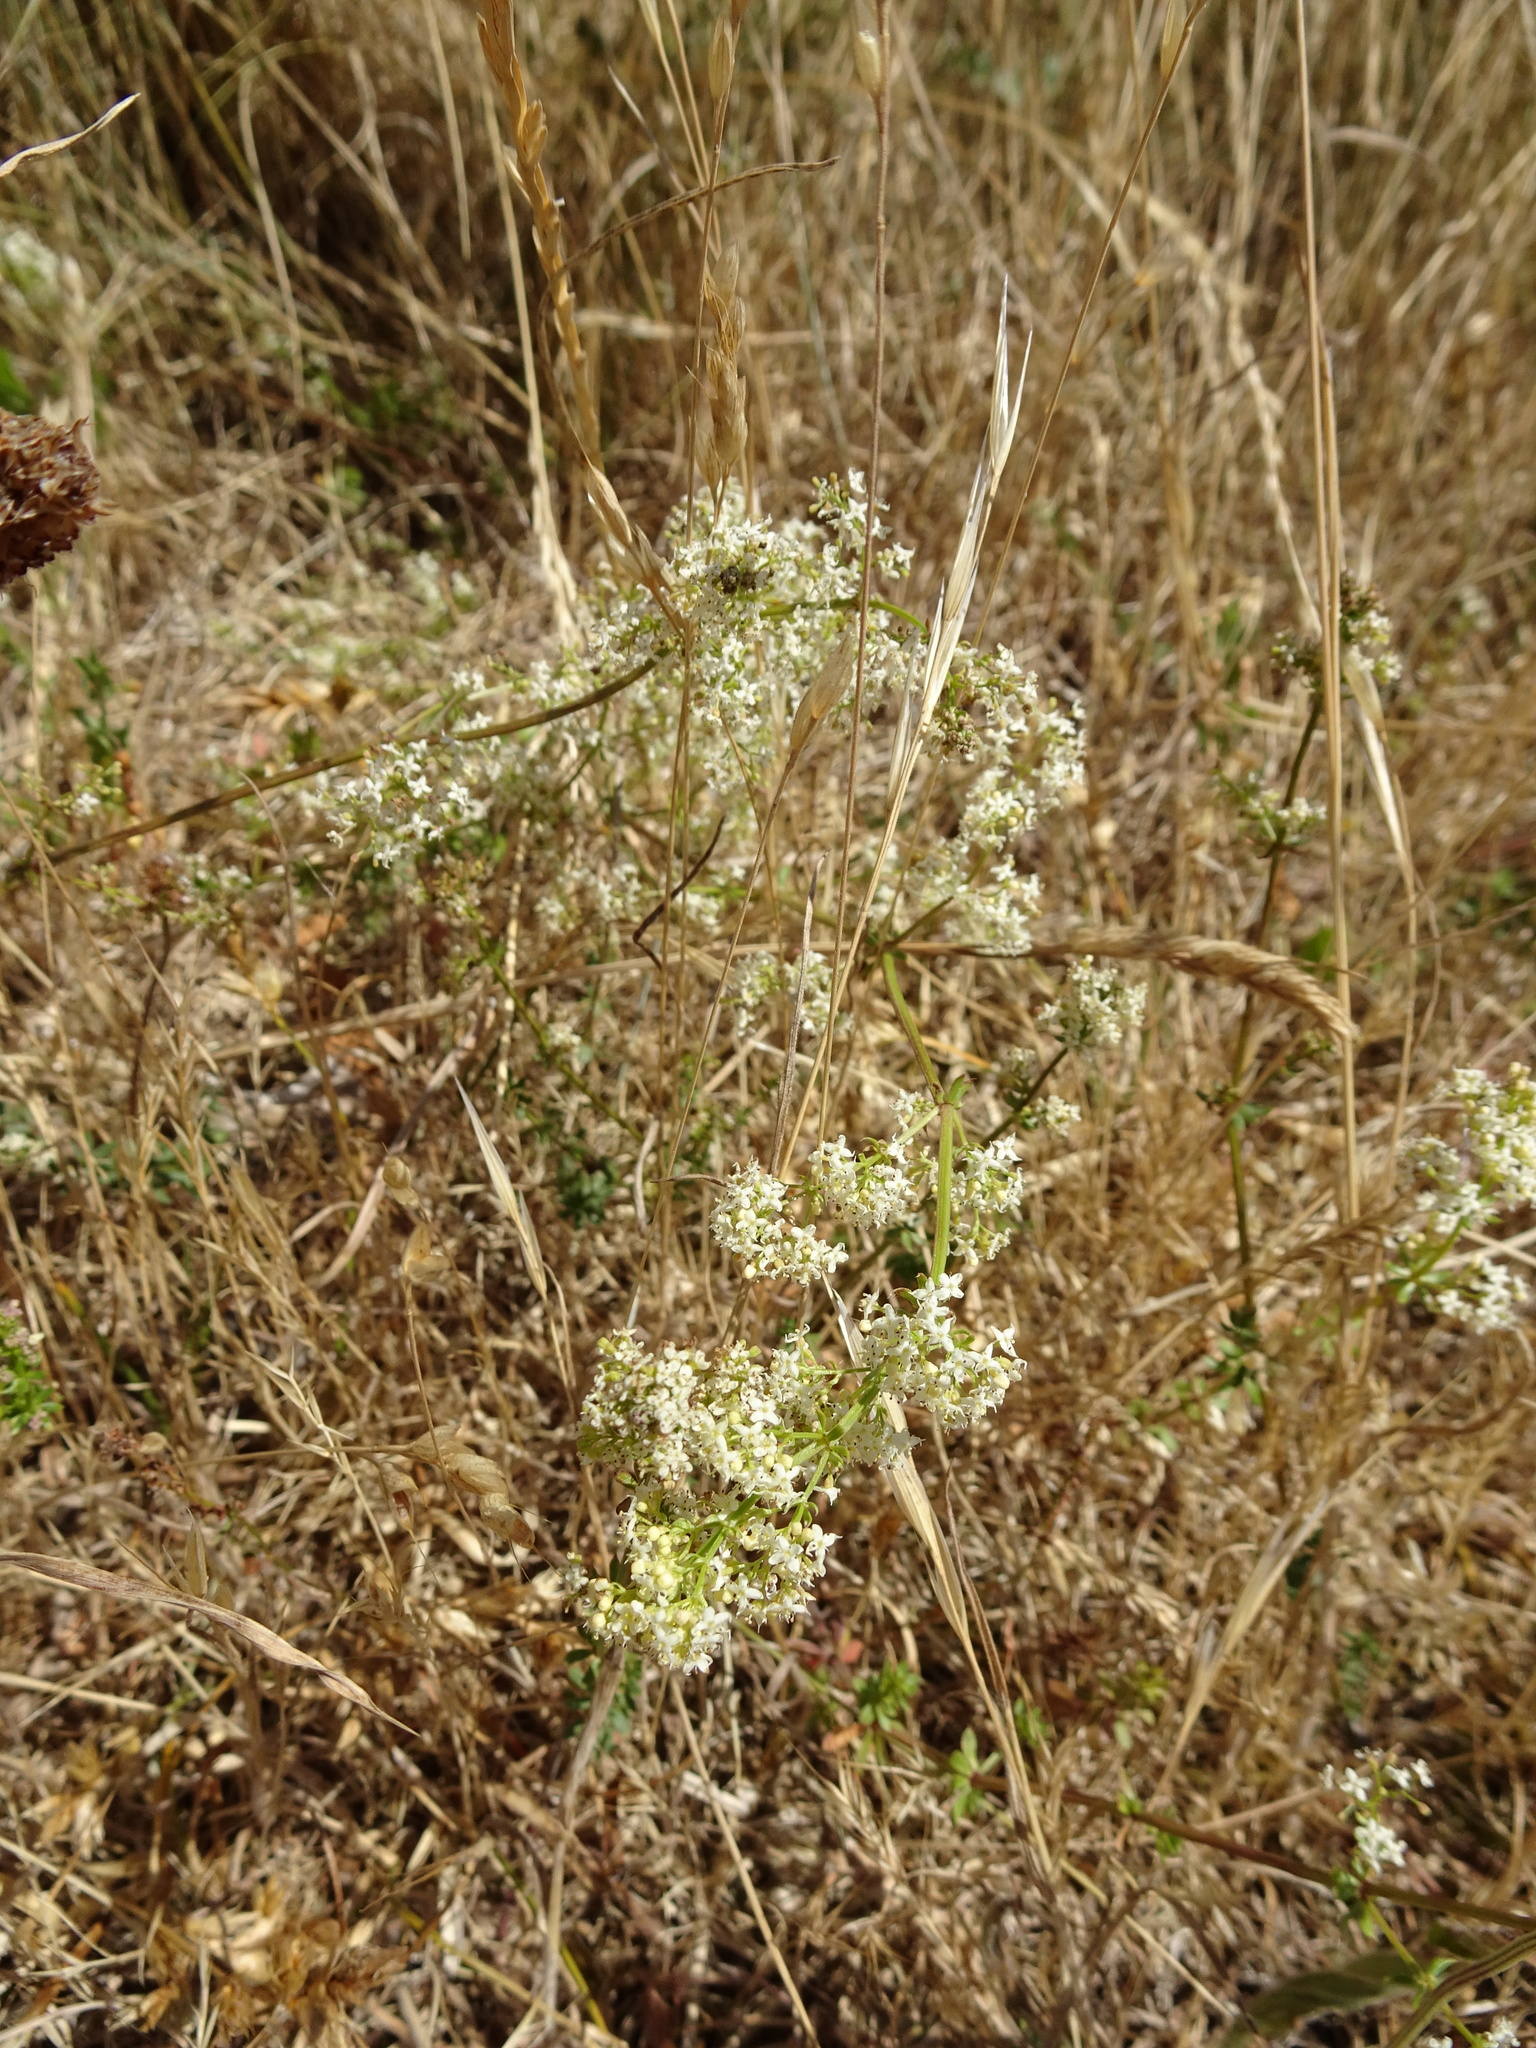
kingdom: Plantae
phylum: Tracheophyta
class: Magnoliopsida
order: Gentianales
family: Rubiaceae
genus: Galium
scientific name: Galium mollugo
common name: Hedge bedstraw
